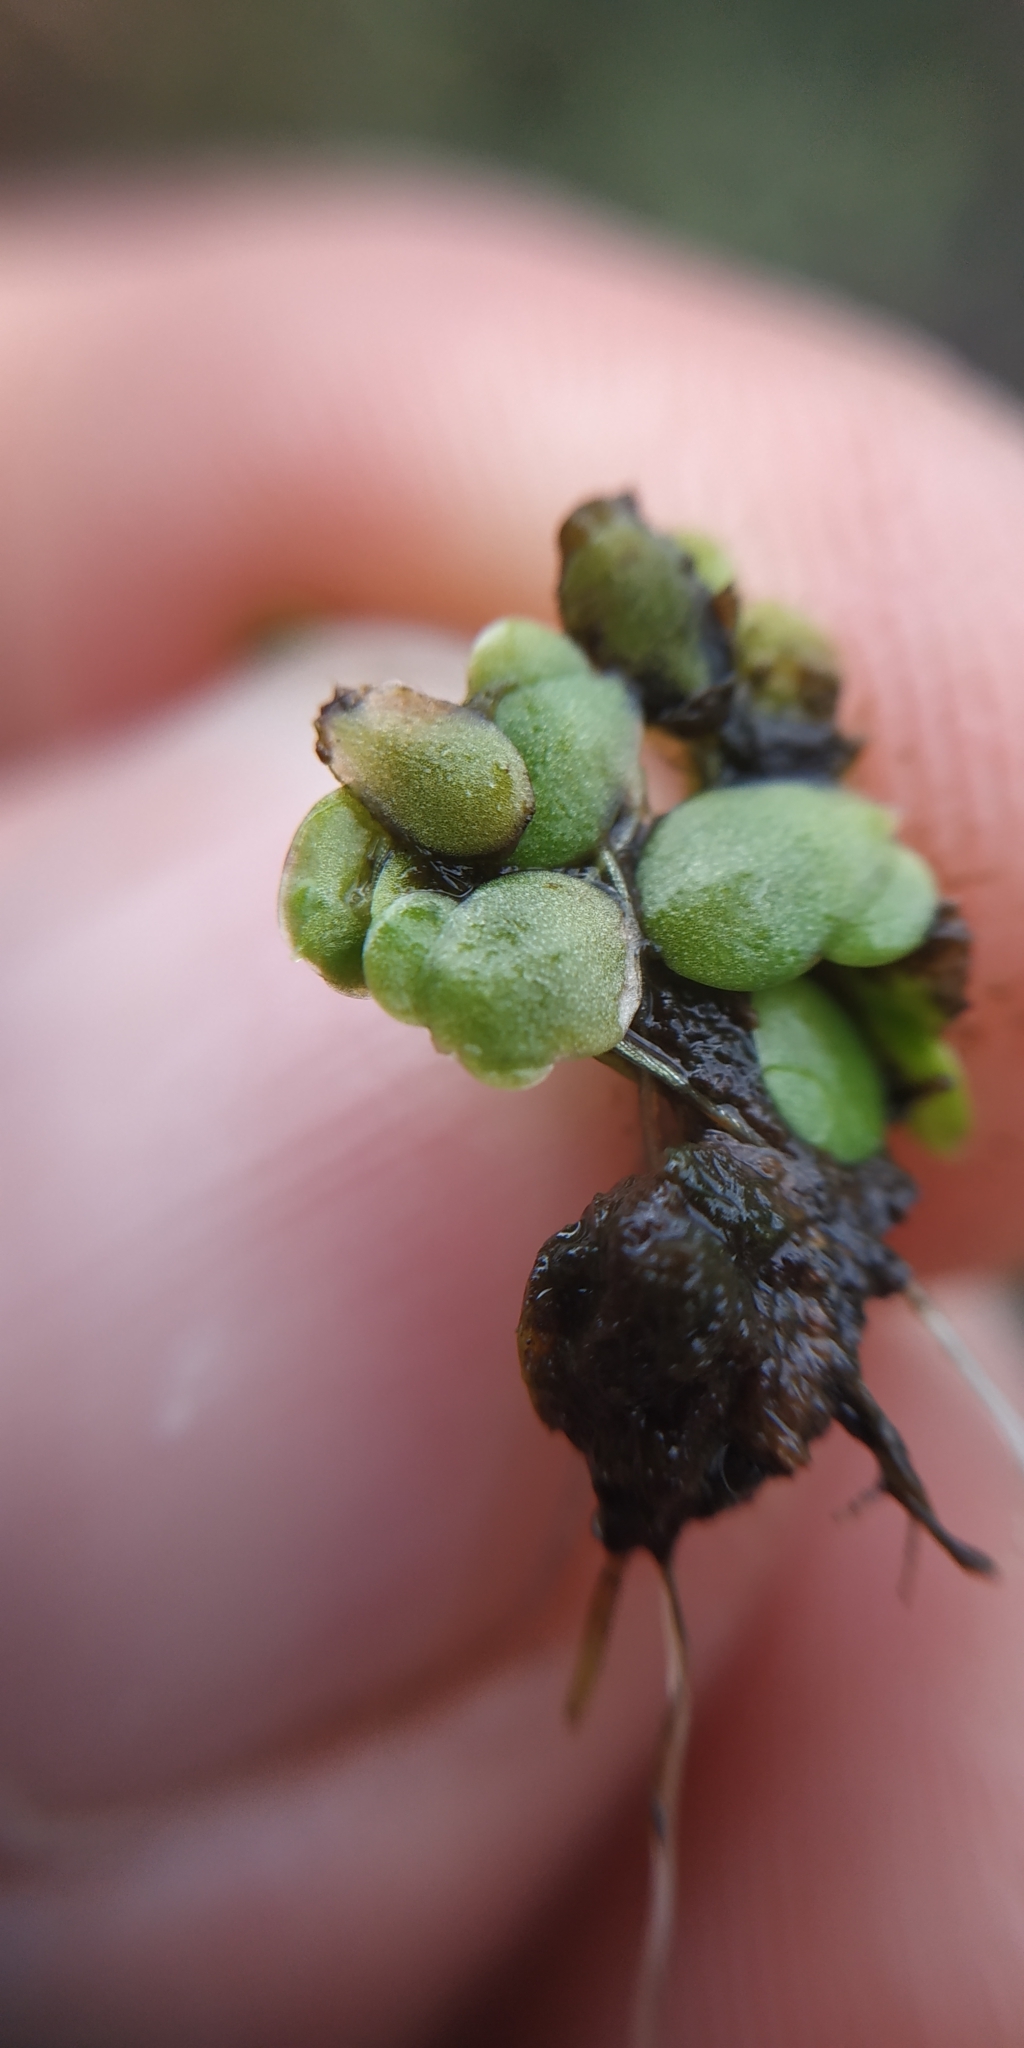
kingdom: Plantae
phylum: Tracheophyta
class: Liliopsida
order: Alismatales
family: Araceae
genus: Spirodela
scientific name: Spirodela polyrhiza
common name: Great duckweed
